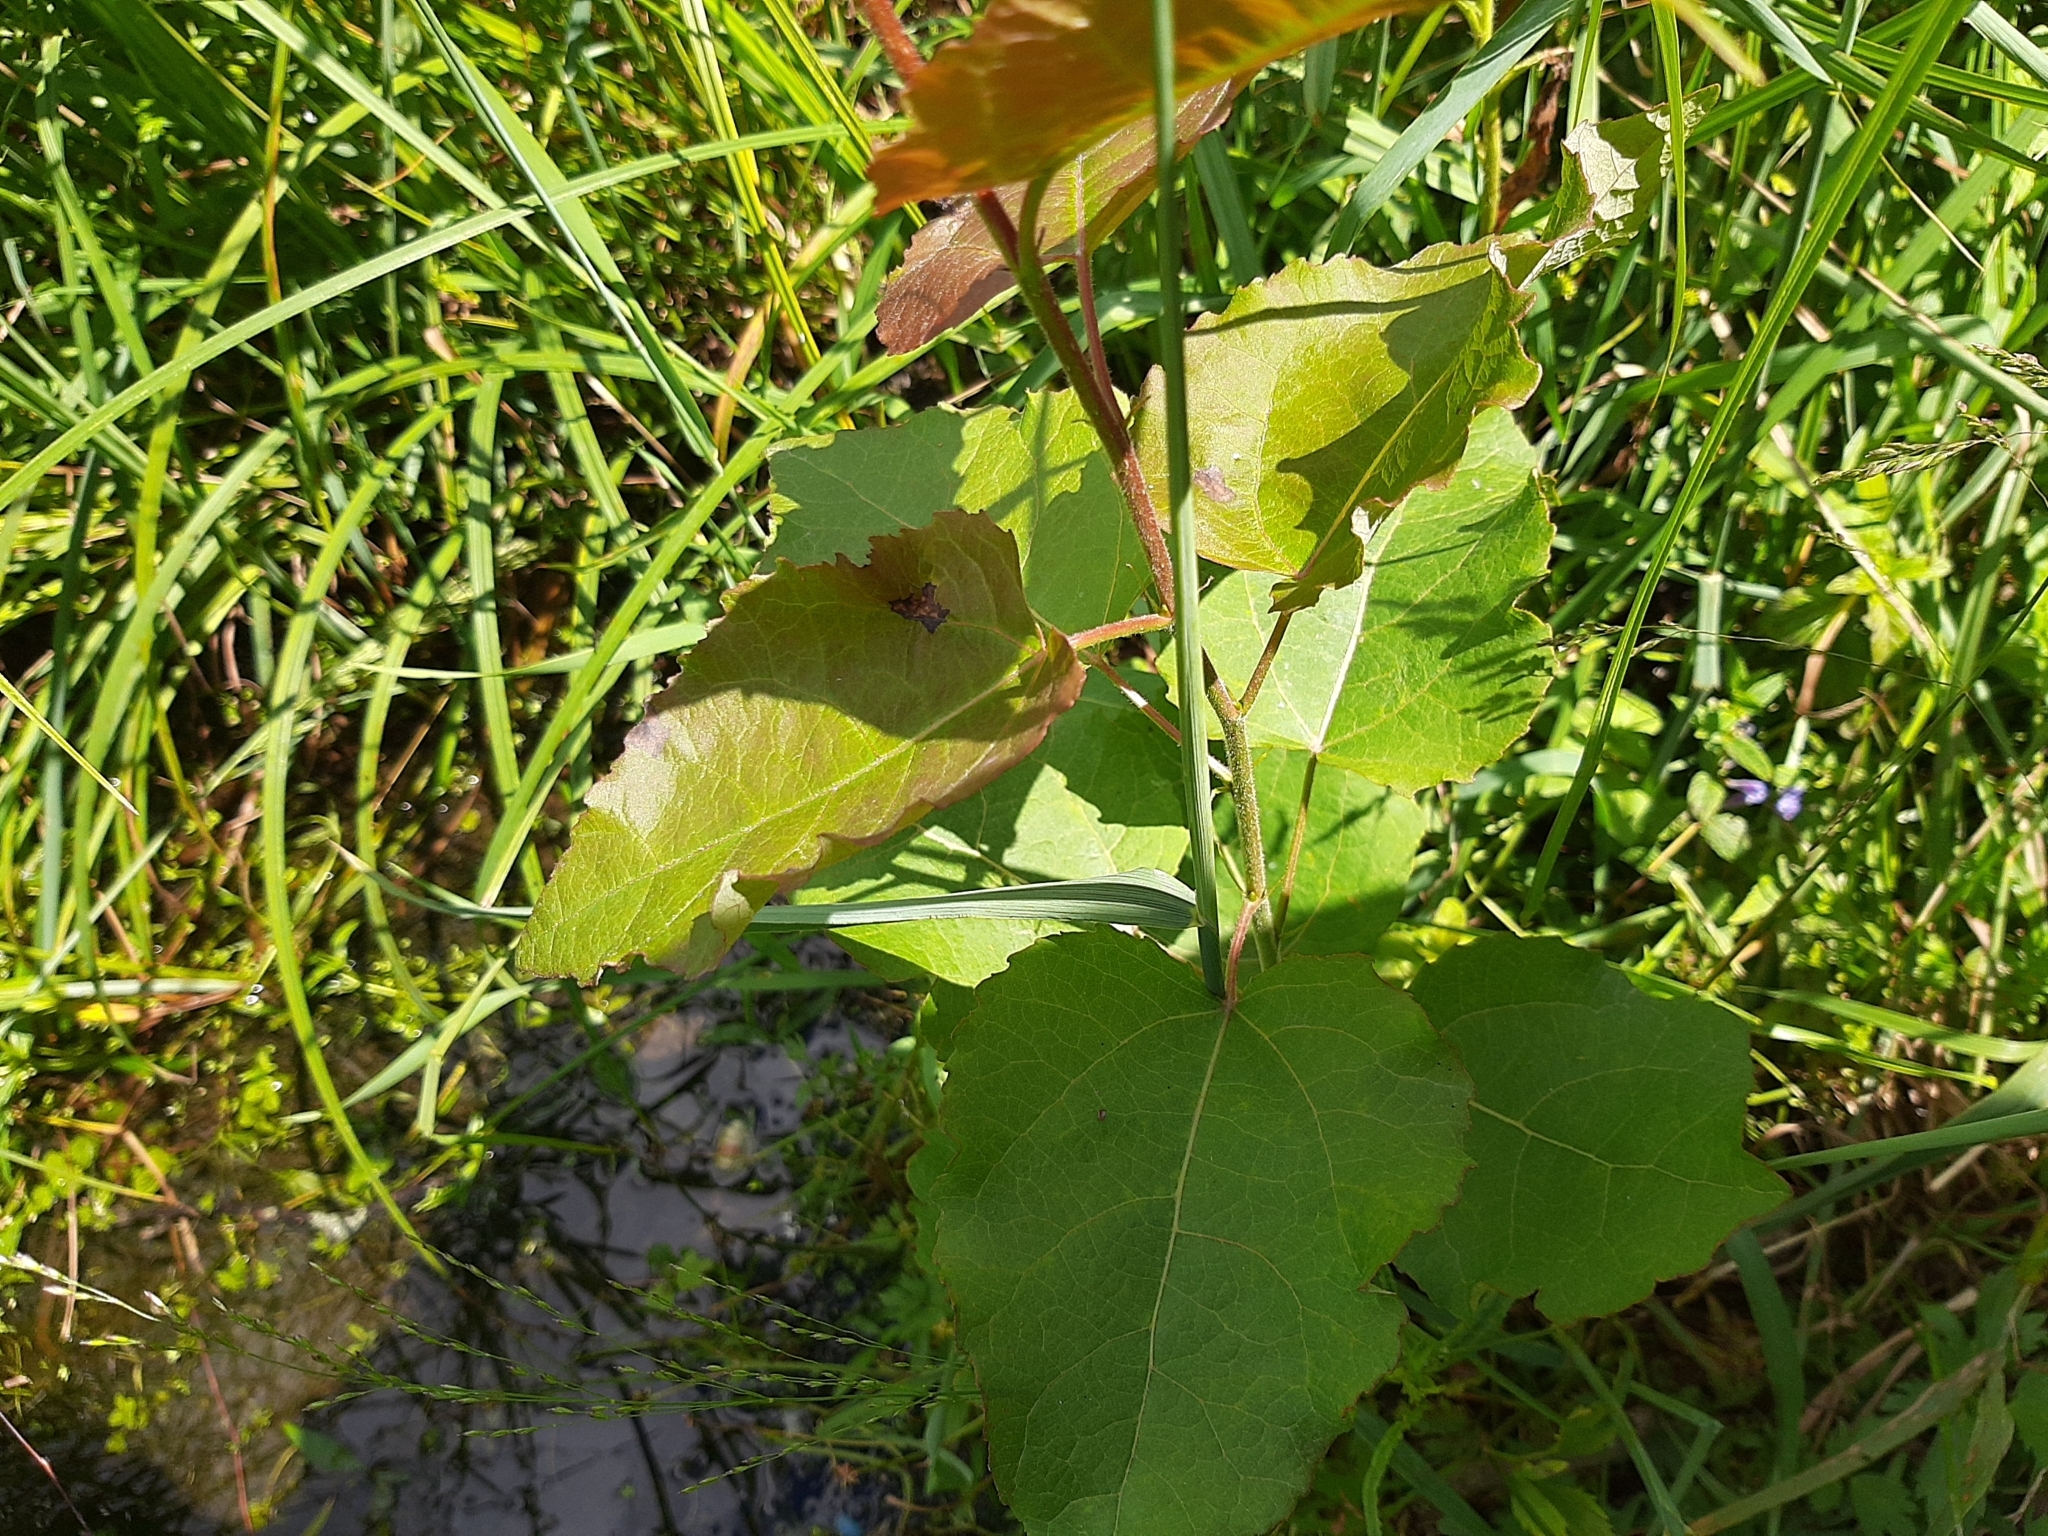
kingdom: Plantae
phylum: Tracheophyta
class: Magnoliopsida
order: Malpighiales
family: Salicaceae
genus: Populus
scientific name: Populus tremula
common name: European aspen
